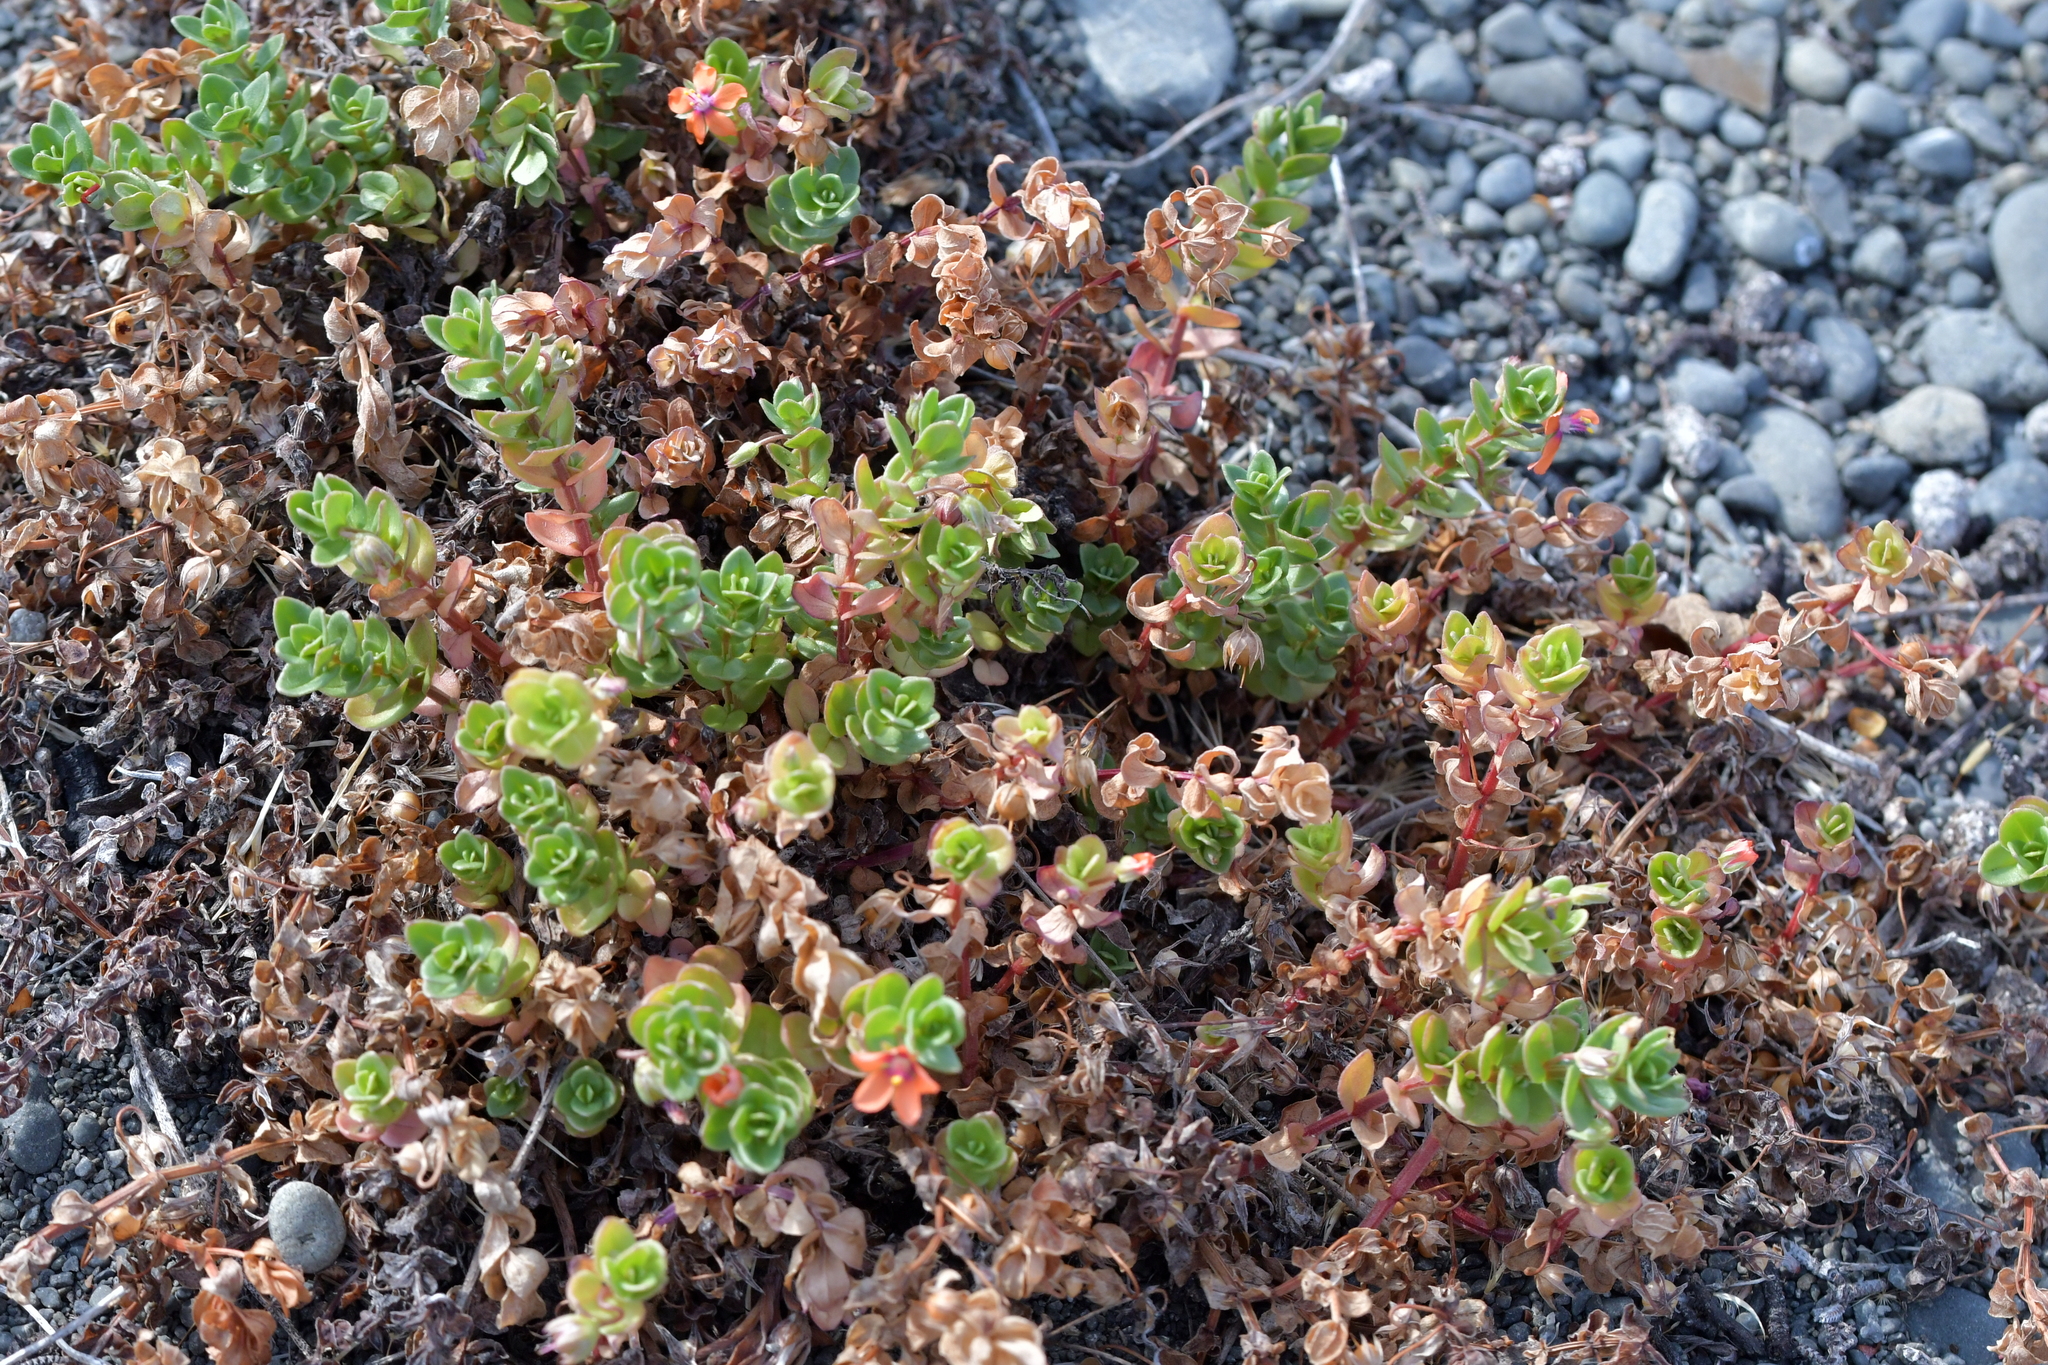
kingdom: Plantae
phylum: Tracheophyta
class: Magnoliopsida
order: Ericales
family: Primulaceae
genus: Lysimachia
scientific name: Lysimachia arvensis
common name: Scarlet pimpernel
